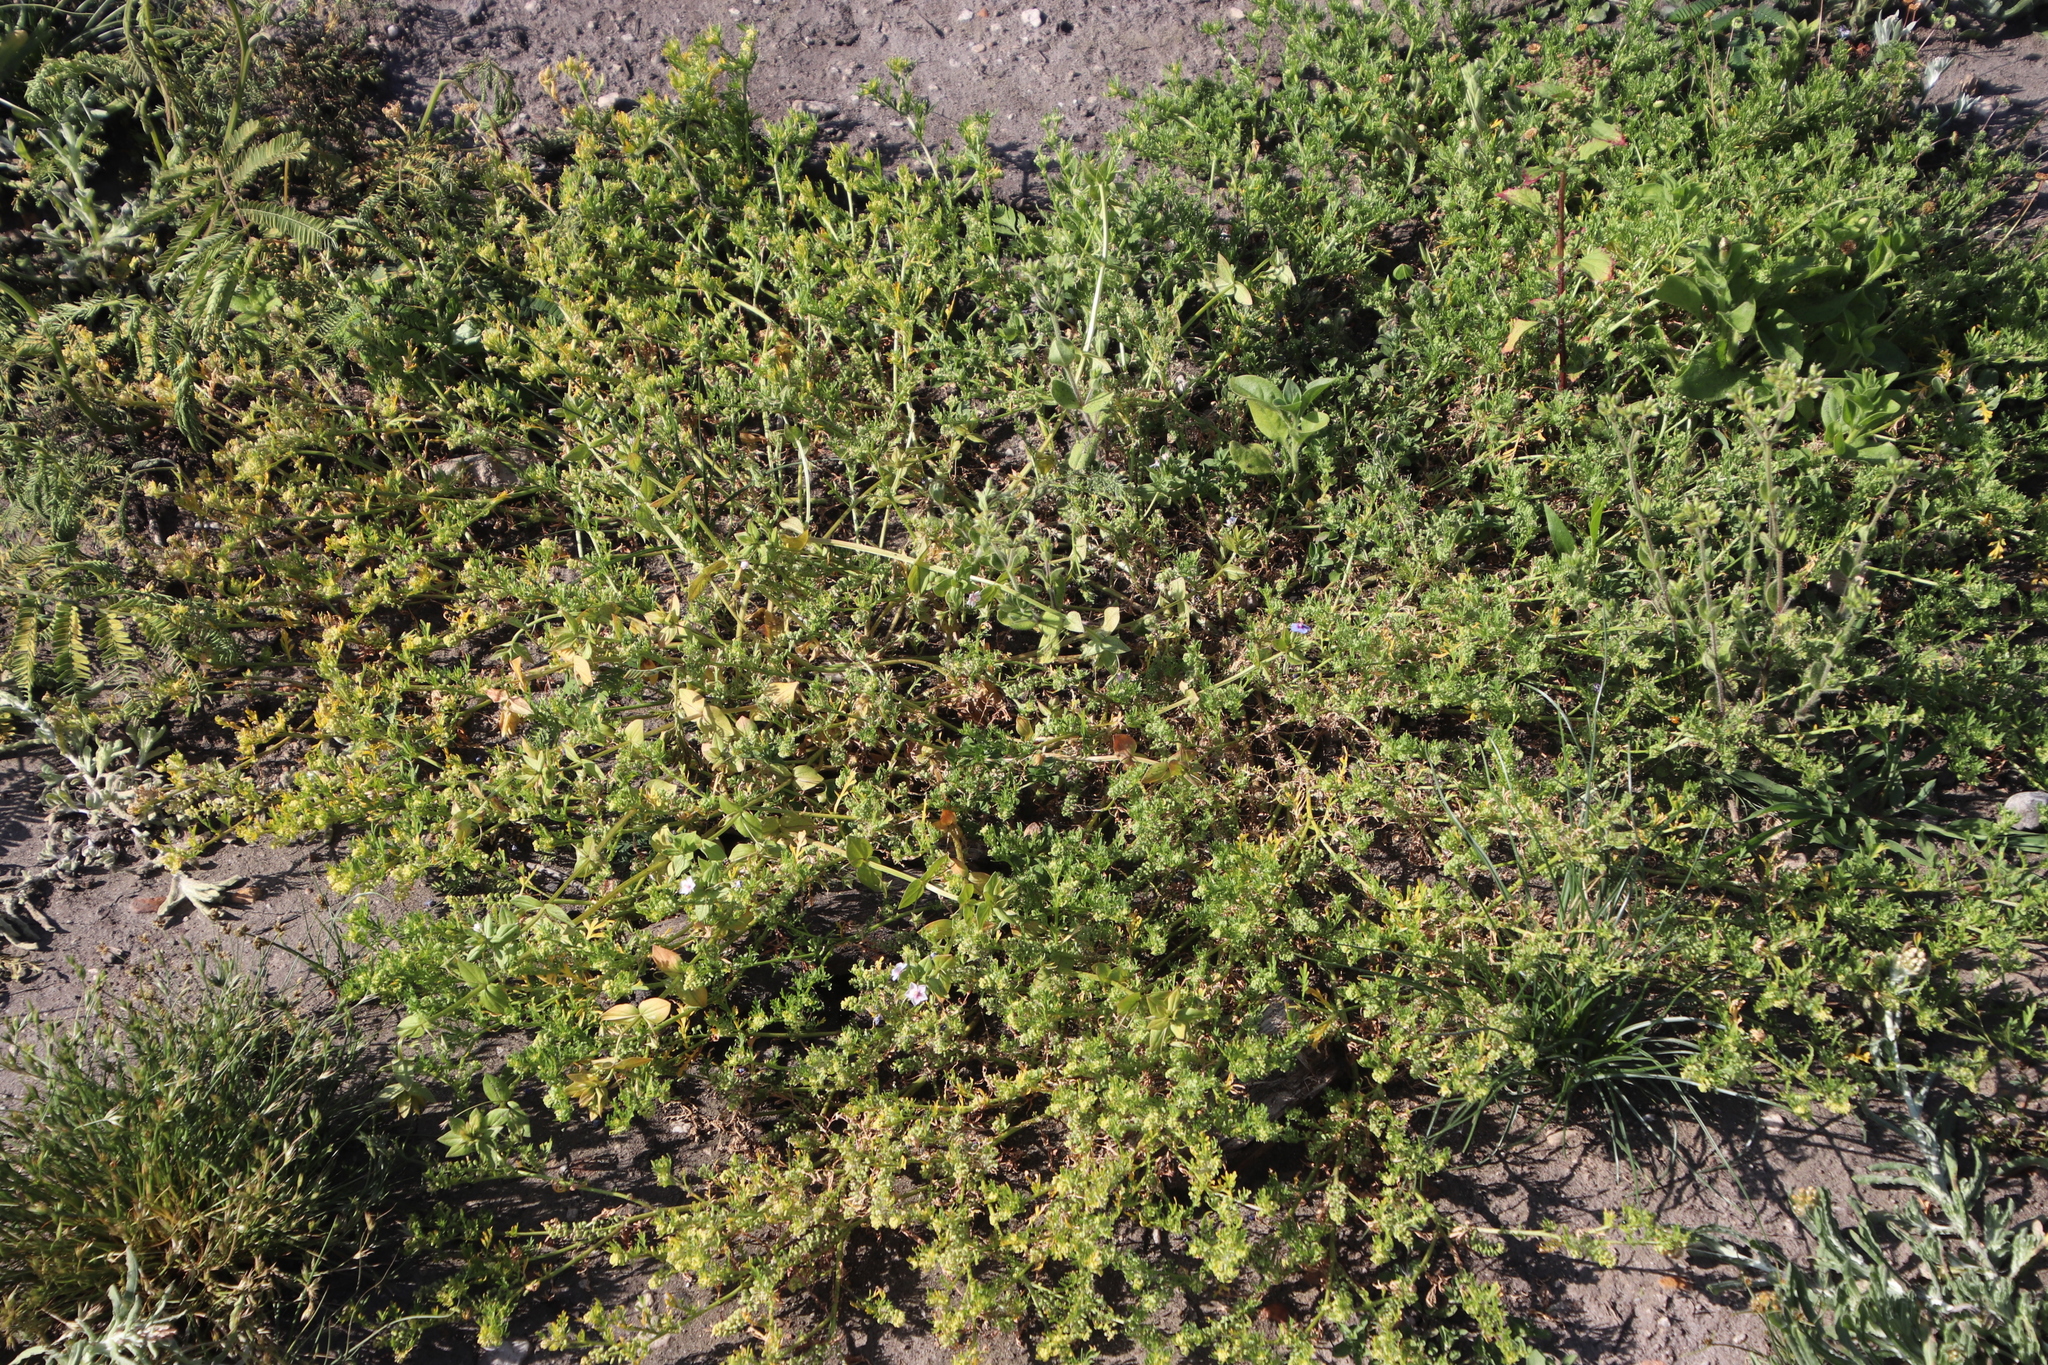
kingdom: Plantae
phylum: Tracheophyta
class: Magnoliopsida
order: Ericales
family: Primulaceae
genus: Lysimachia
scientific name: Lysimachia loeflingii
